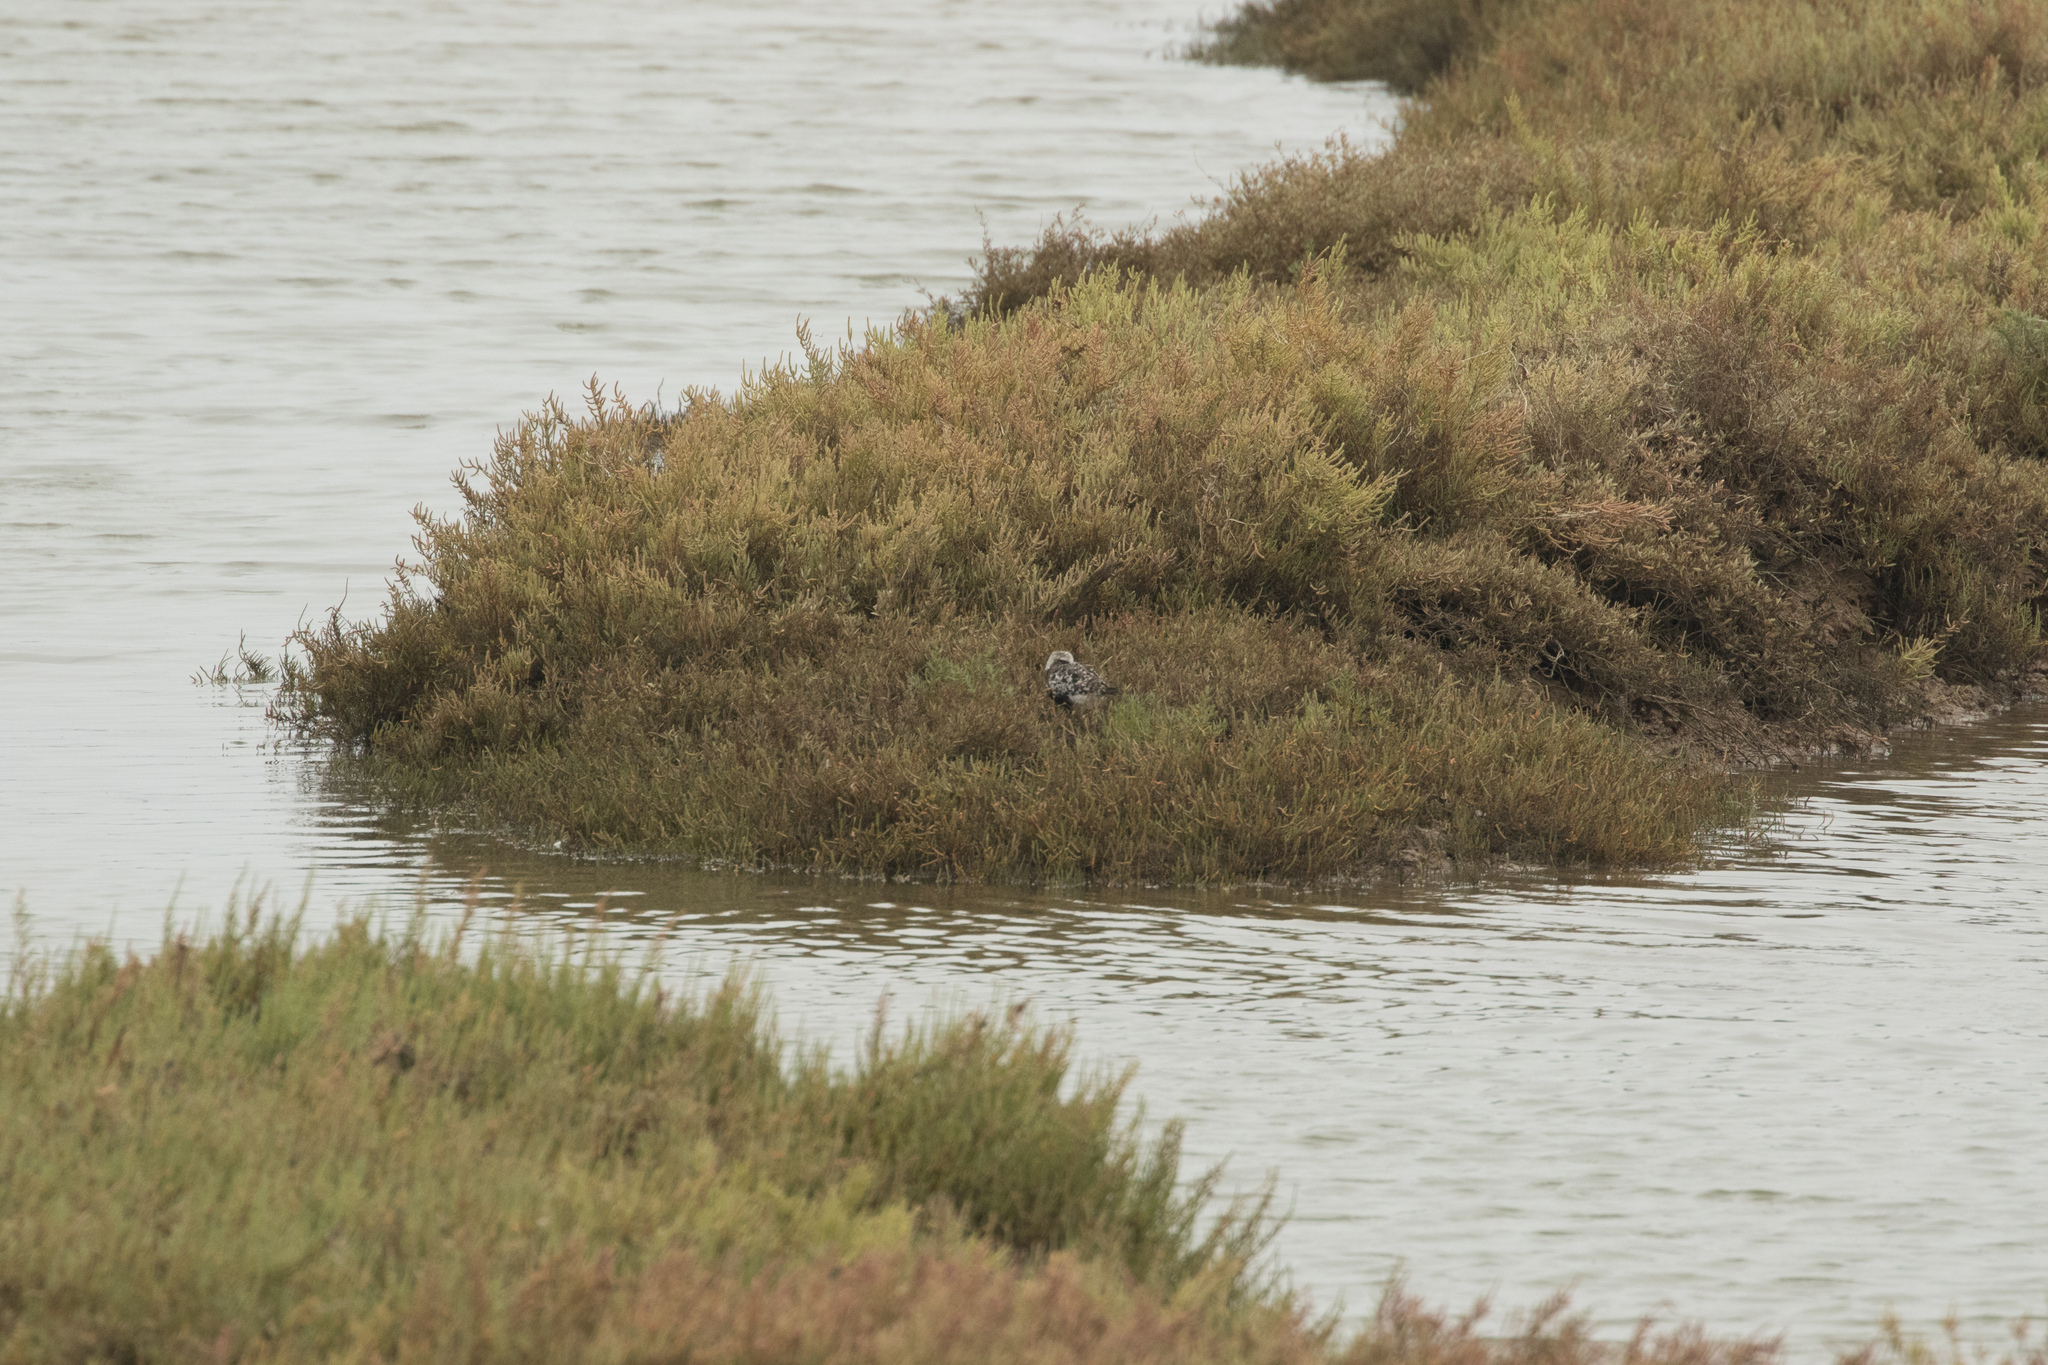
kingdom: Animalia
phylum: Chordata
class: Aves
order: Charadriiformes
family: Charadriidae
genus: Pluvialis
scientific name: Pluvialis squatarola
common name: Grey plover
